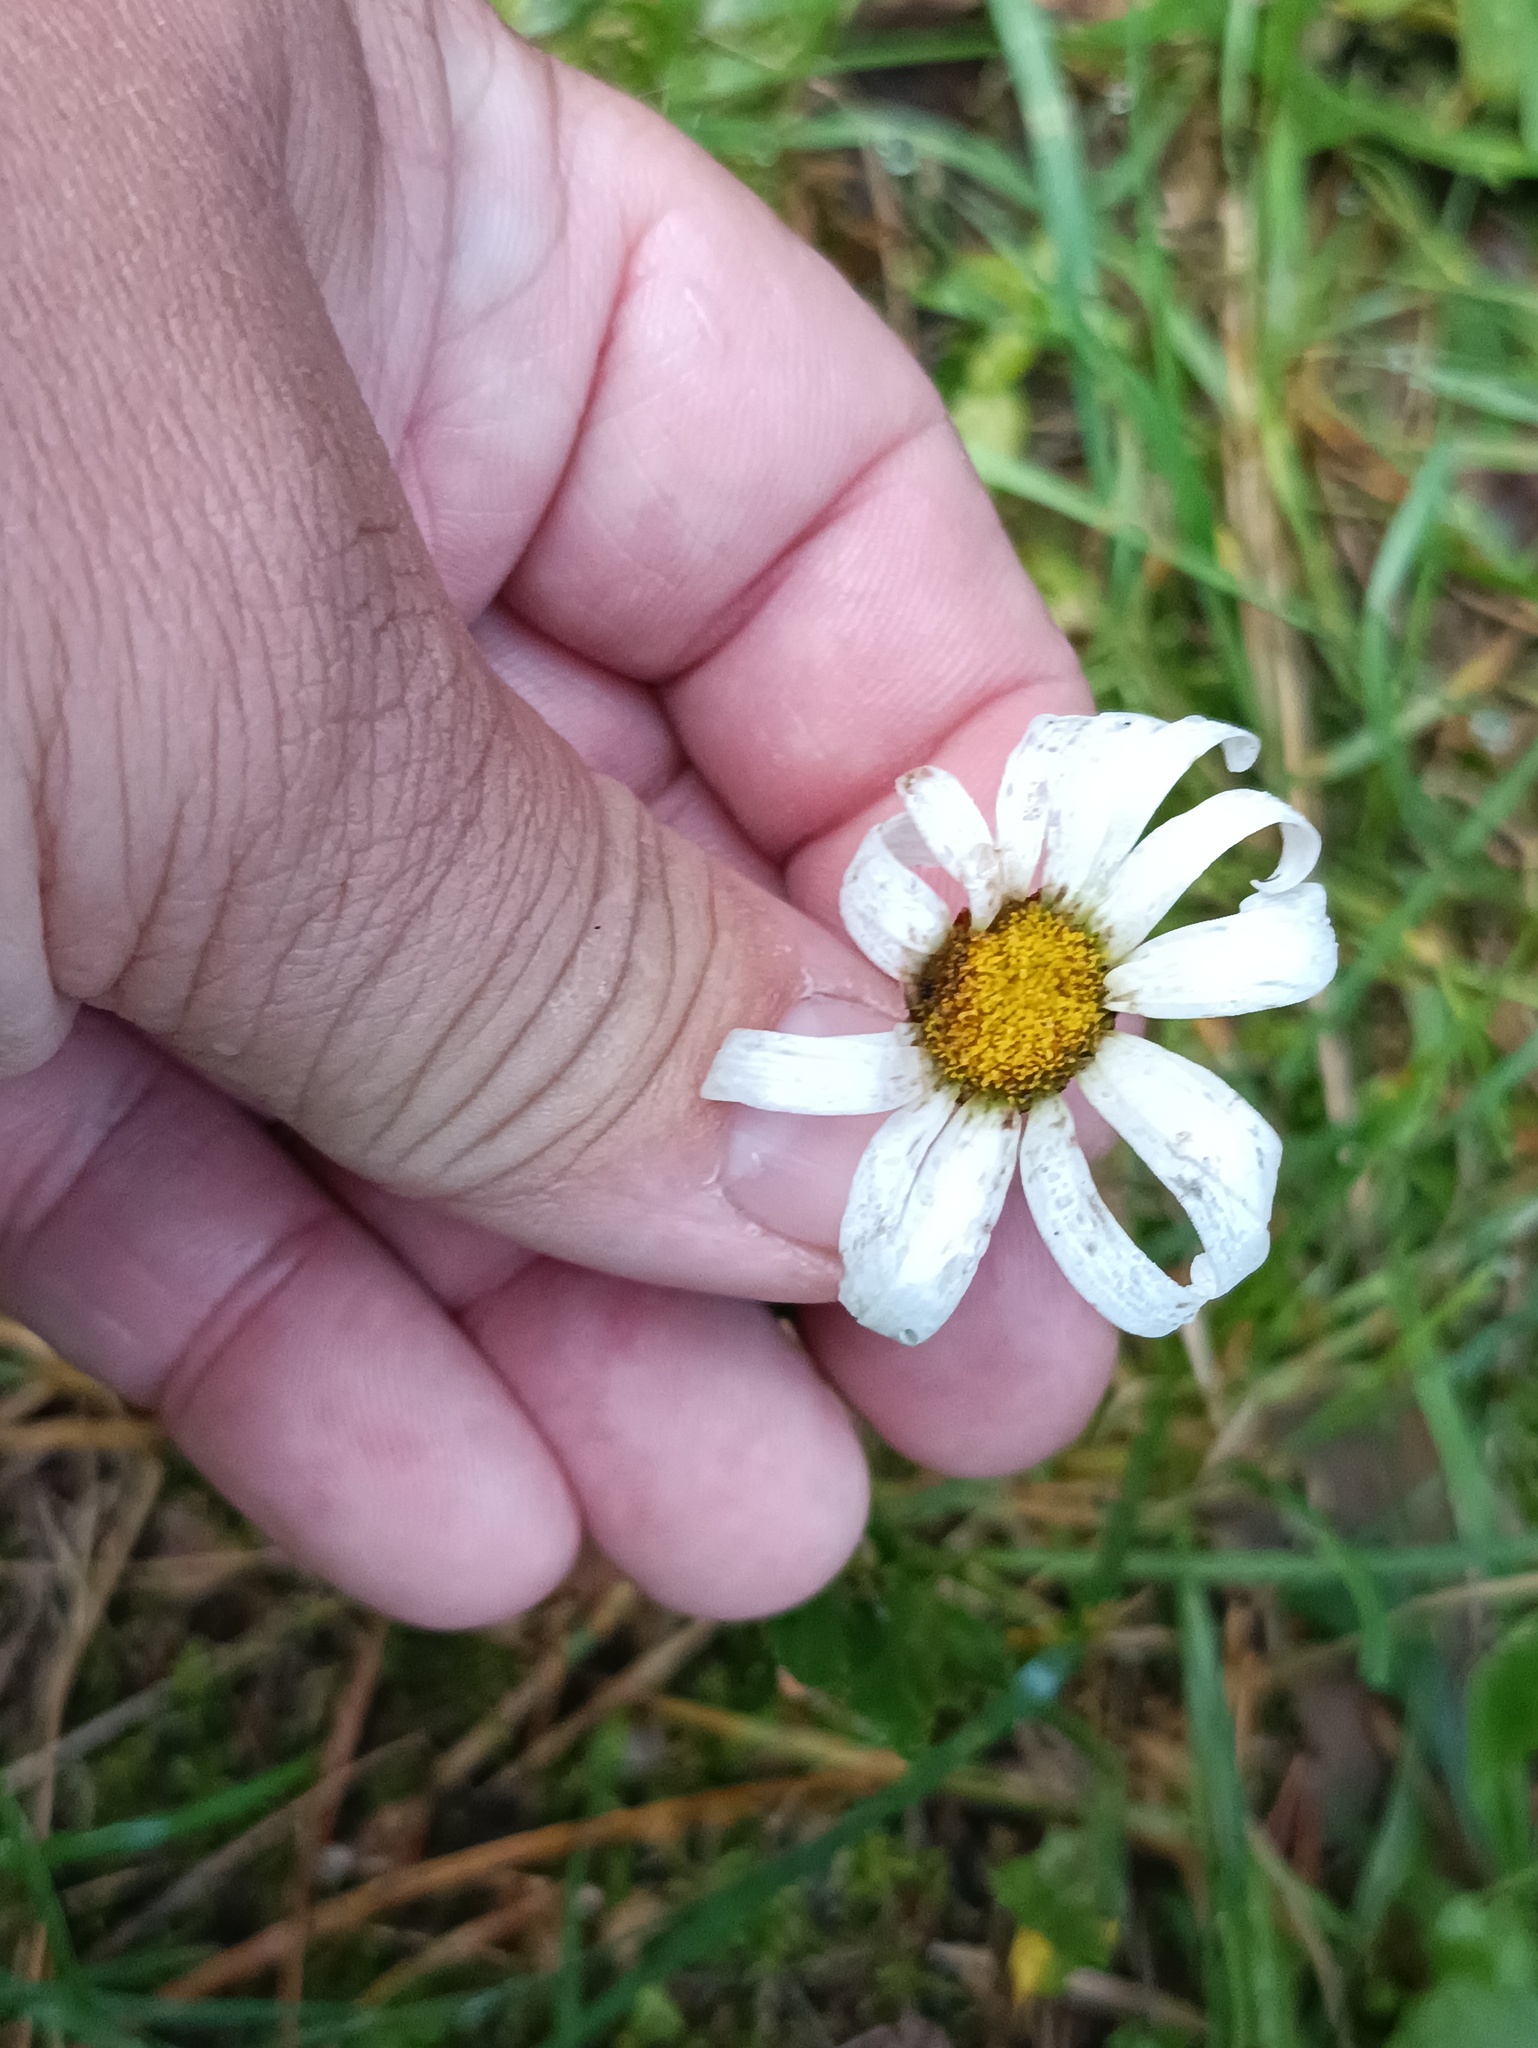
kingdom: Plantae
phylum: Tracheophyta
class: Magnoliopsida
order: Asterales
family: Asteraceae
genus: Leucanthemum
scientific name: Leucanthemum vulgare
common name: Oxeye daisy
